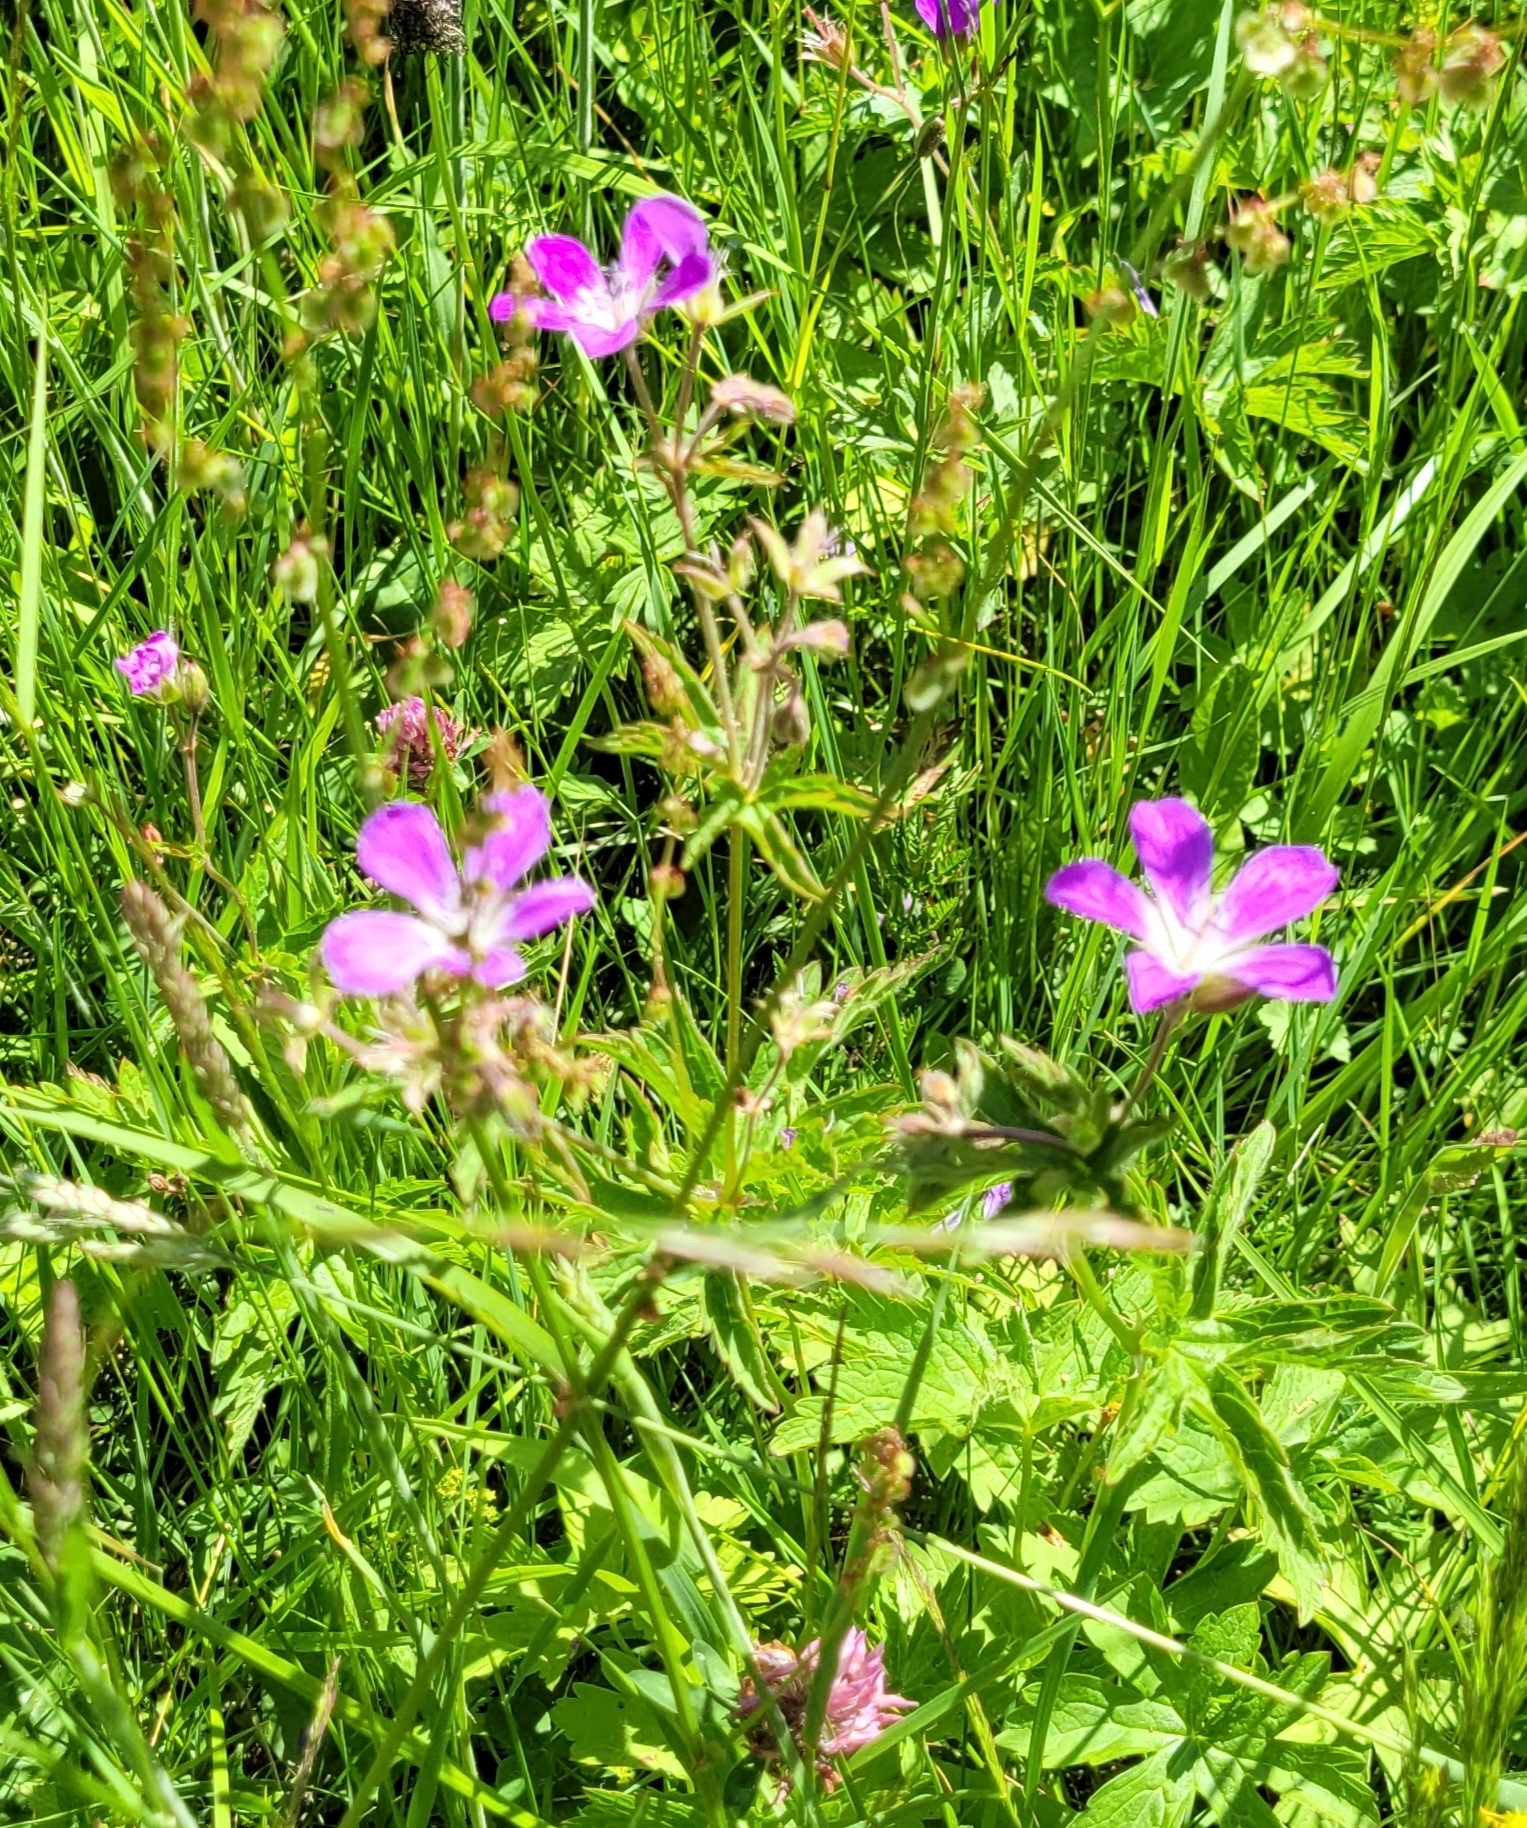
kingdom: Plantae
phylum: Tracheophyta
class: Magnoliopsida
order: Geraniales
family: Geraniaceae
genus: Geranium
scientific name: Geranium sylvaticum
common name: Wood crane's-bill
